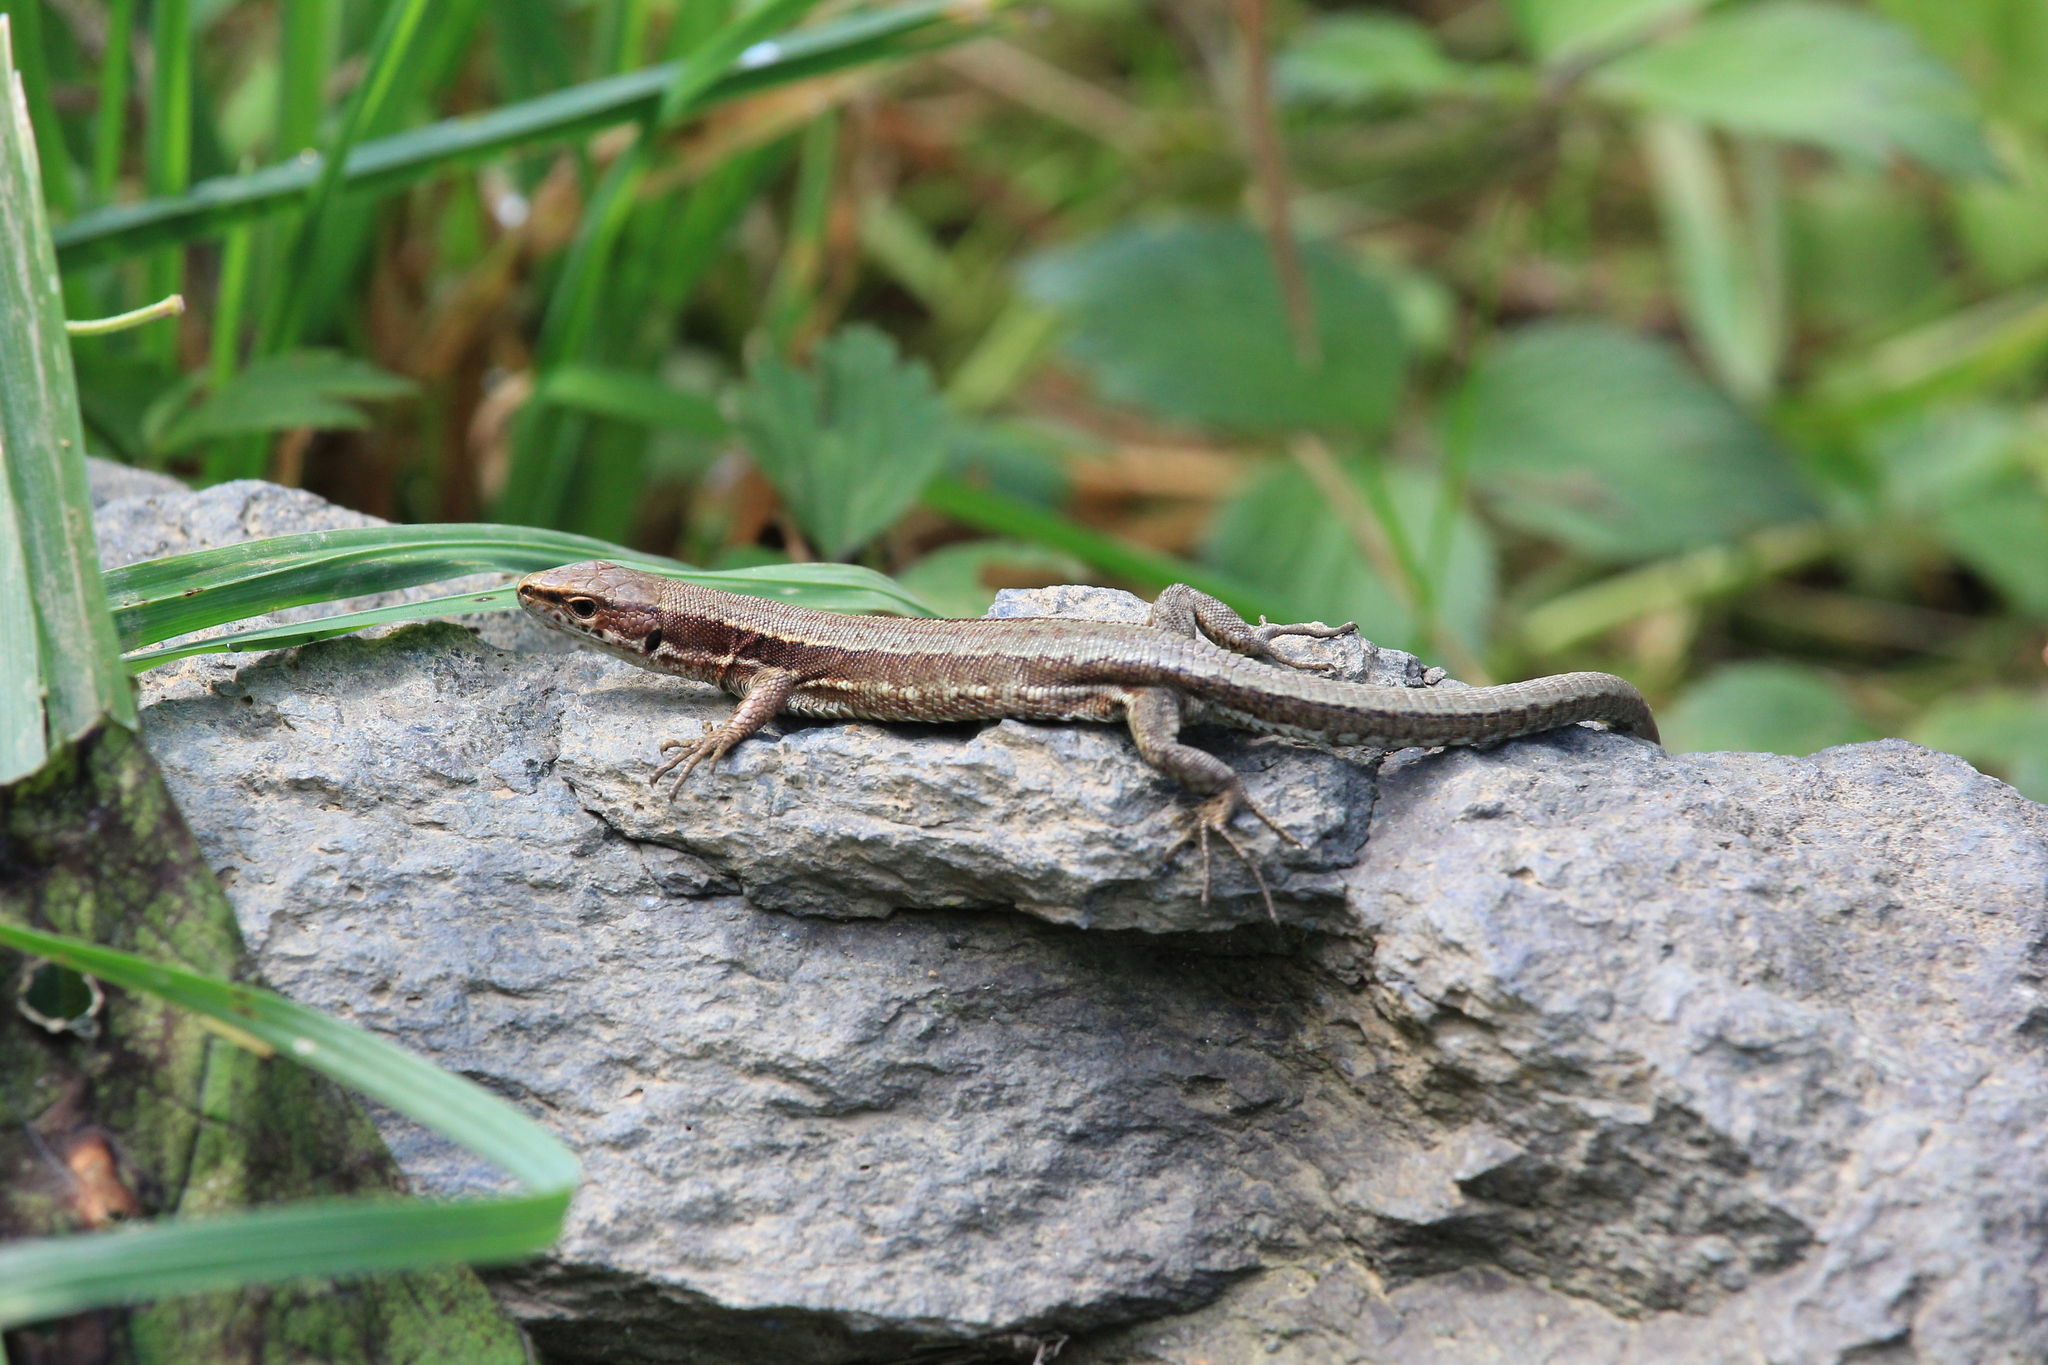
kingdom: Animalia
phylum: Chordata
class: Squamata
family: Lacertidae
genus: Darevskia
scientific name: Darevskia derjugini
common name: Derjugin's lizard
